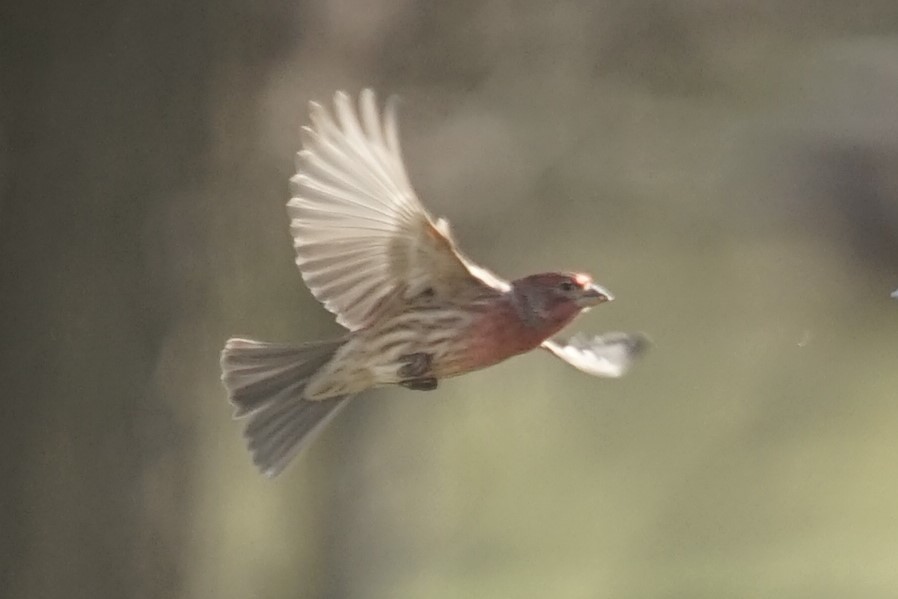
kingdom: Animalia
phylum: Chordata
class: Aves
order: Passeriformes
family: Fringillidae
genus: Haemorhous
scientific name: Haemorhous mexicanus
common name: House finch
